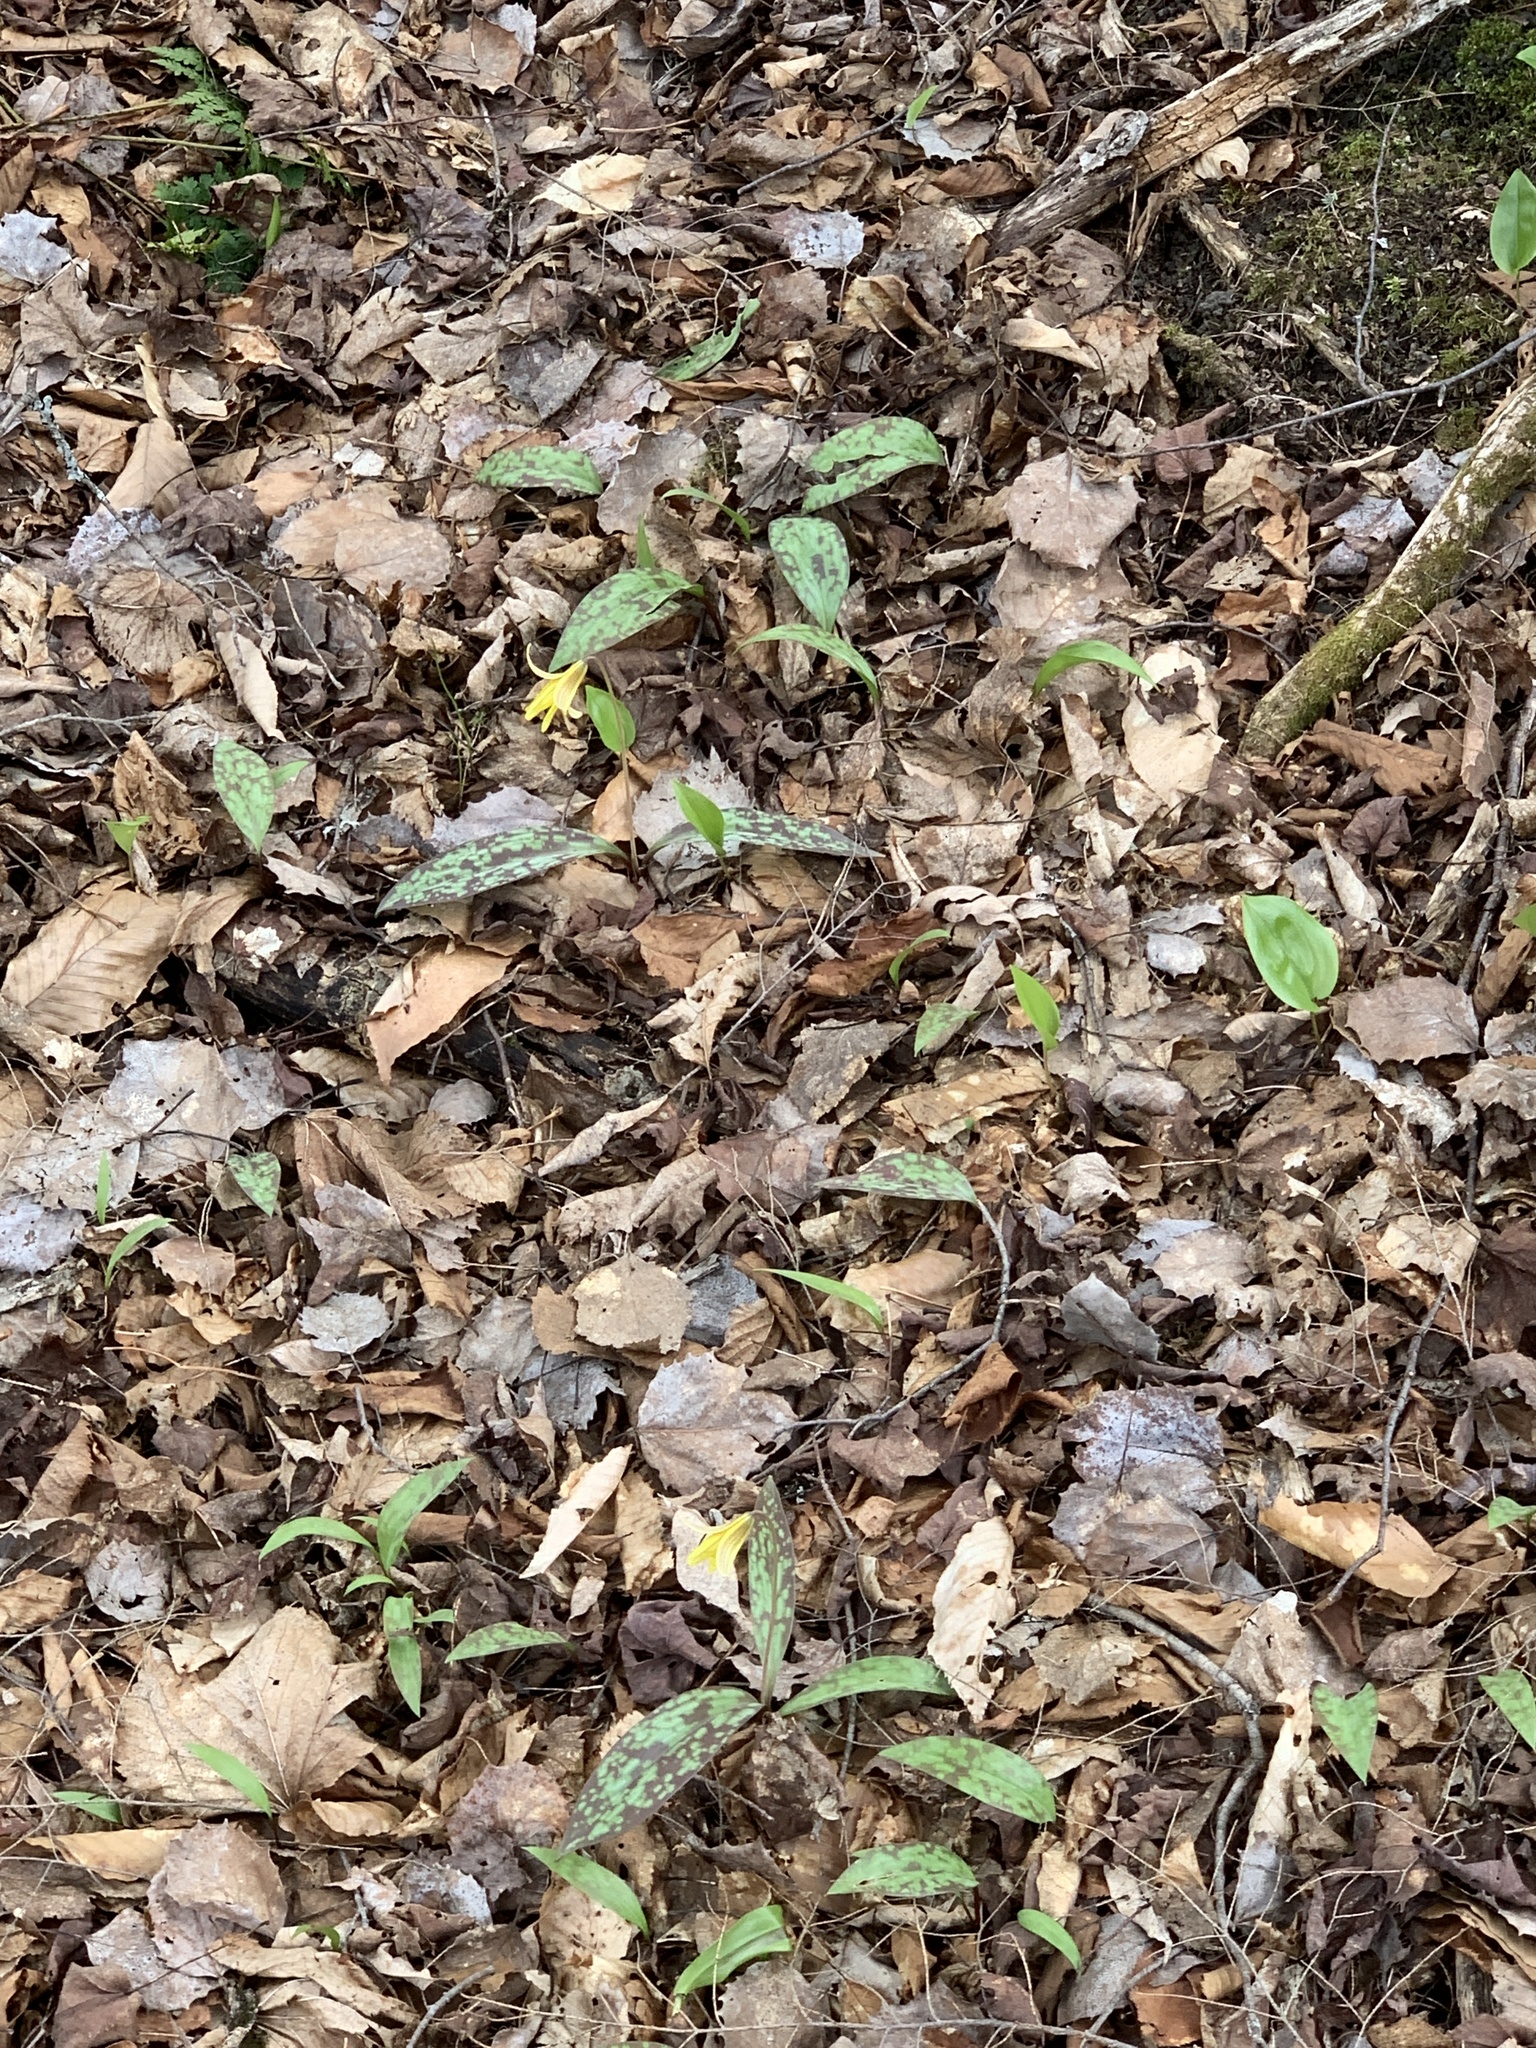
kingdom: Plantae
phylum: Tracheophyta
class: Liliopsida
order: Liliales
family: Liliaceae
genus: Erythronium
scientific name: Erythronium americanum
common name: Yellow adder's-tongue
